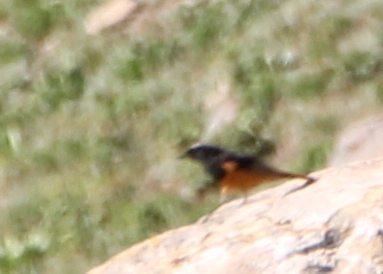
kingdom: Animalia
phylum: Chordata
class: Aves
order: Passeriformes
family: Muscicapidae
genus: Phoenicurus
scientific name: Phoenicurus ochruros
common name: Black redstart
